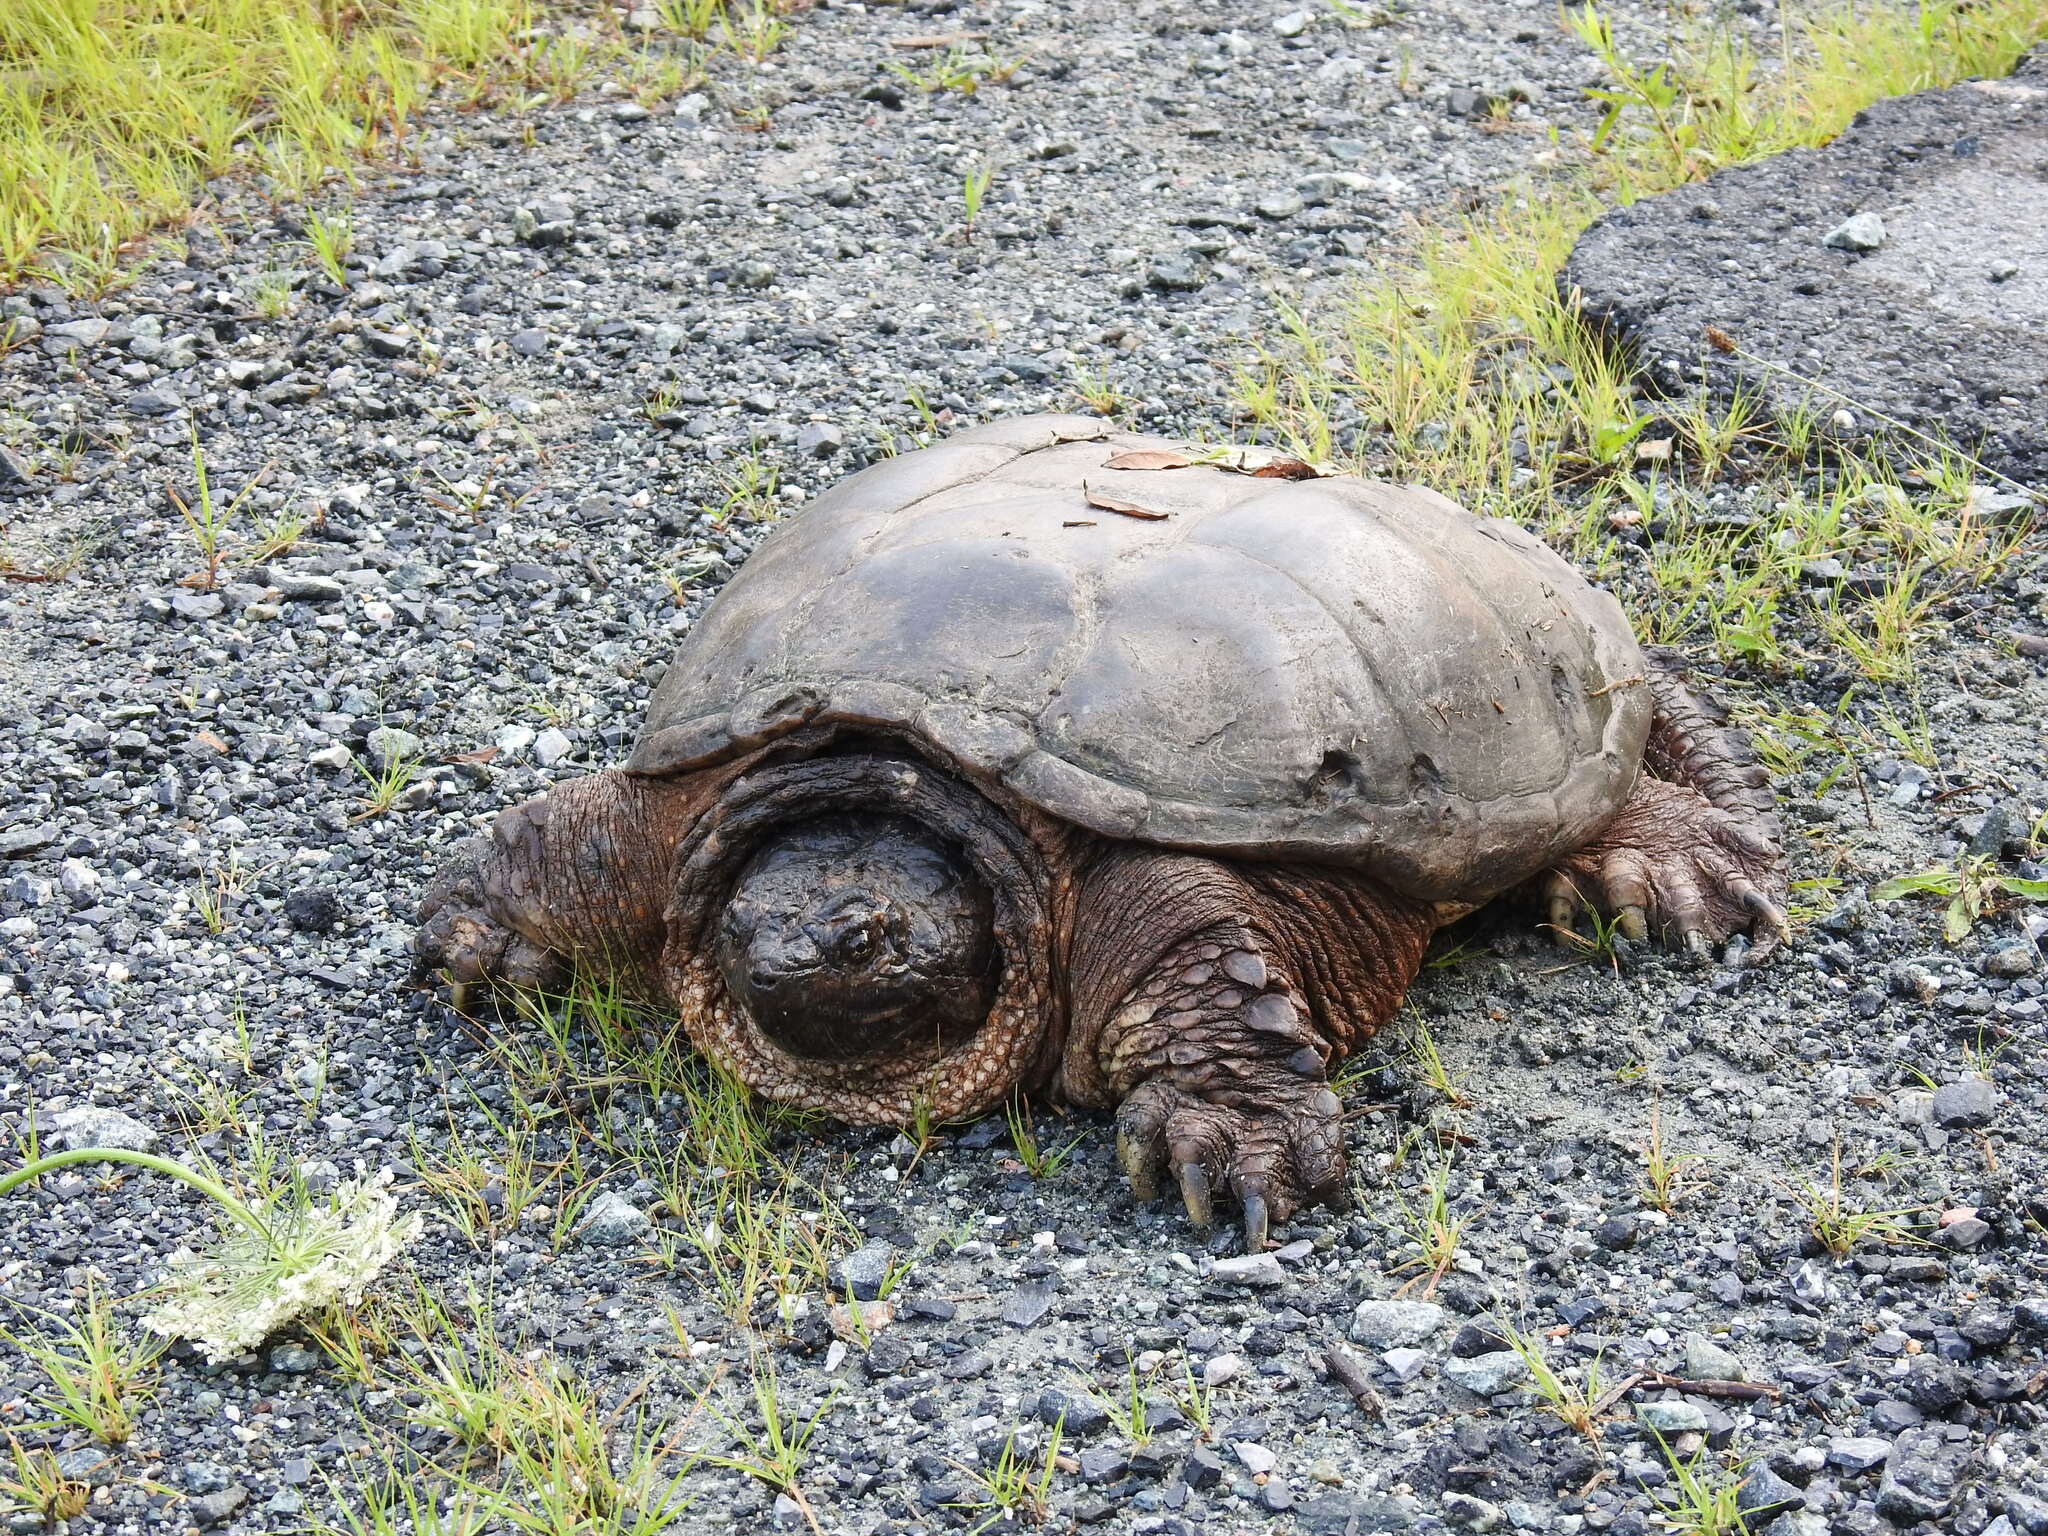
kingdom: Animalia
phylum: Chordata
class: Testudines
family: Chelydridae
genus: Chelydra
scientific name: Chelydra serpentina
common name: Common snapping turtle
